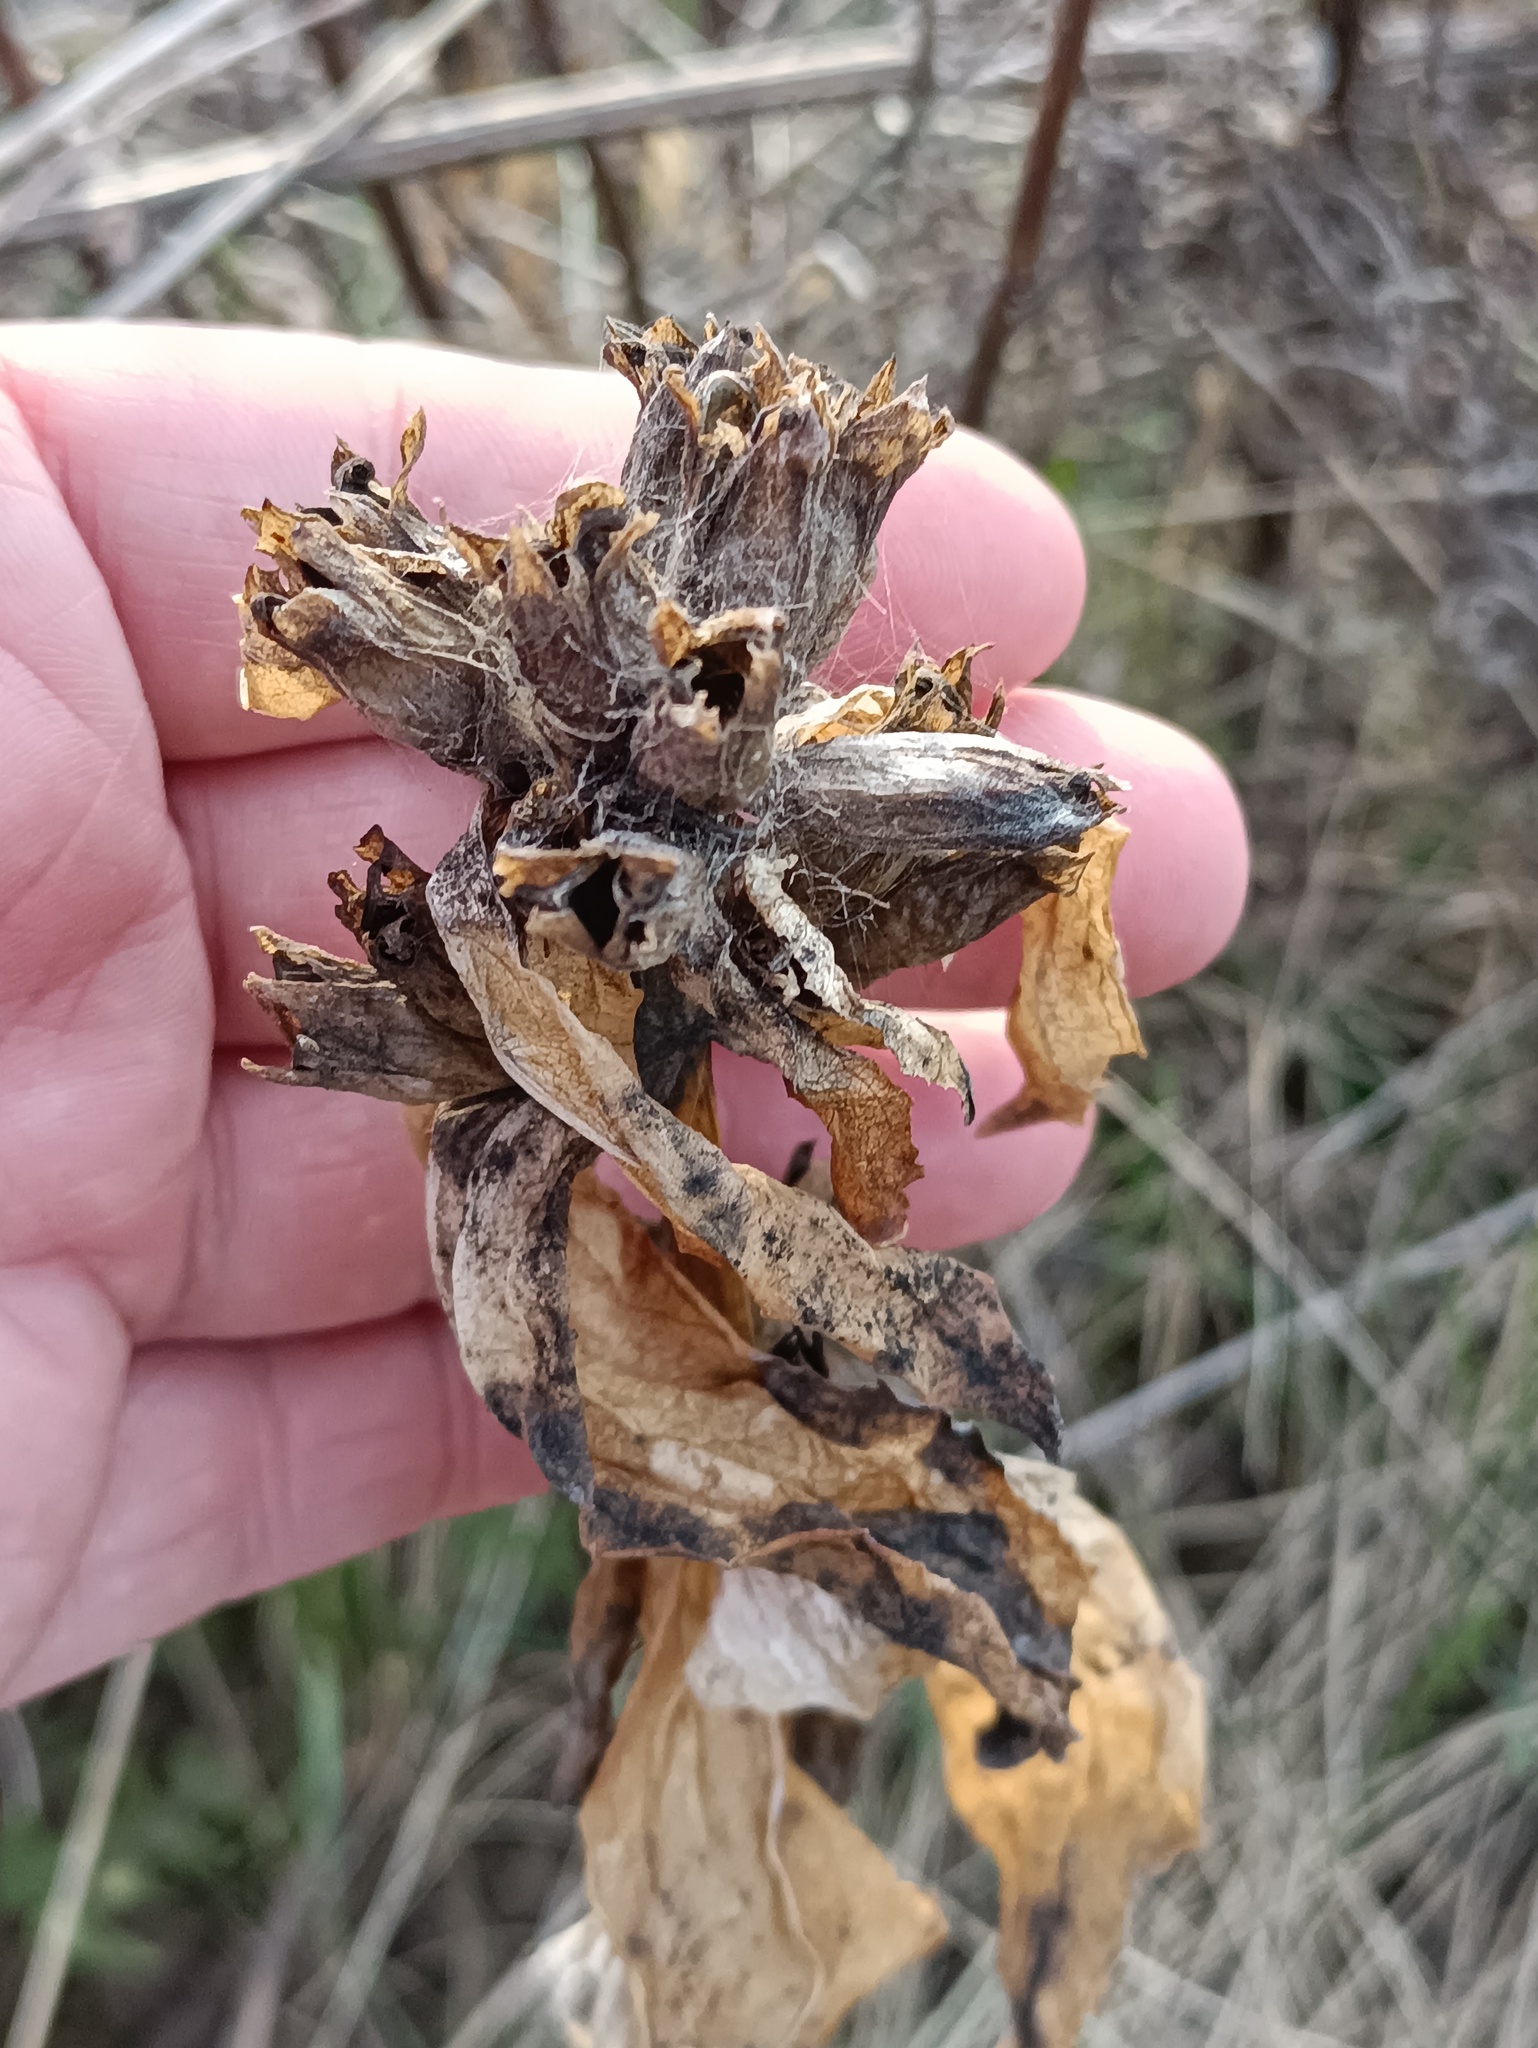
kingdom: Plantae
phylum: Tracheophyta
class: Magnoliopsida
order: Gentianales
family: Gentianaceae
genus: Gentiana
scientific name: Gentiana cruciata
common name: Cross gentian
